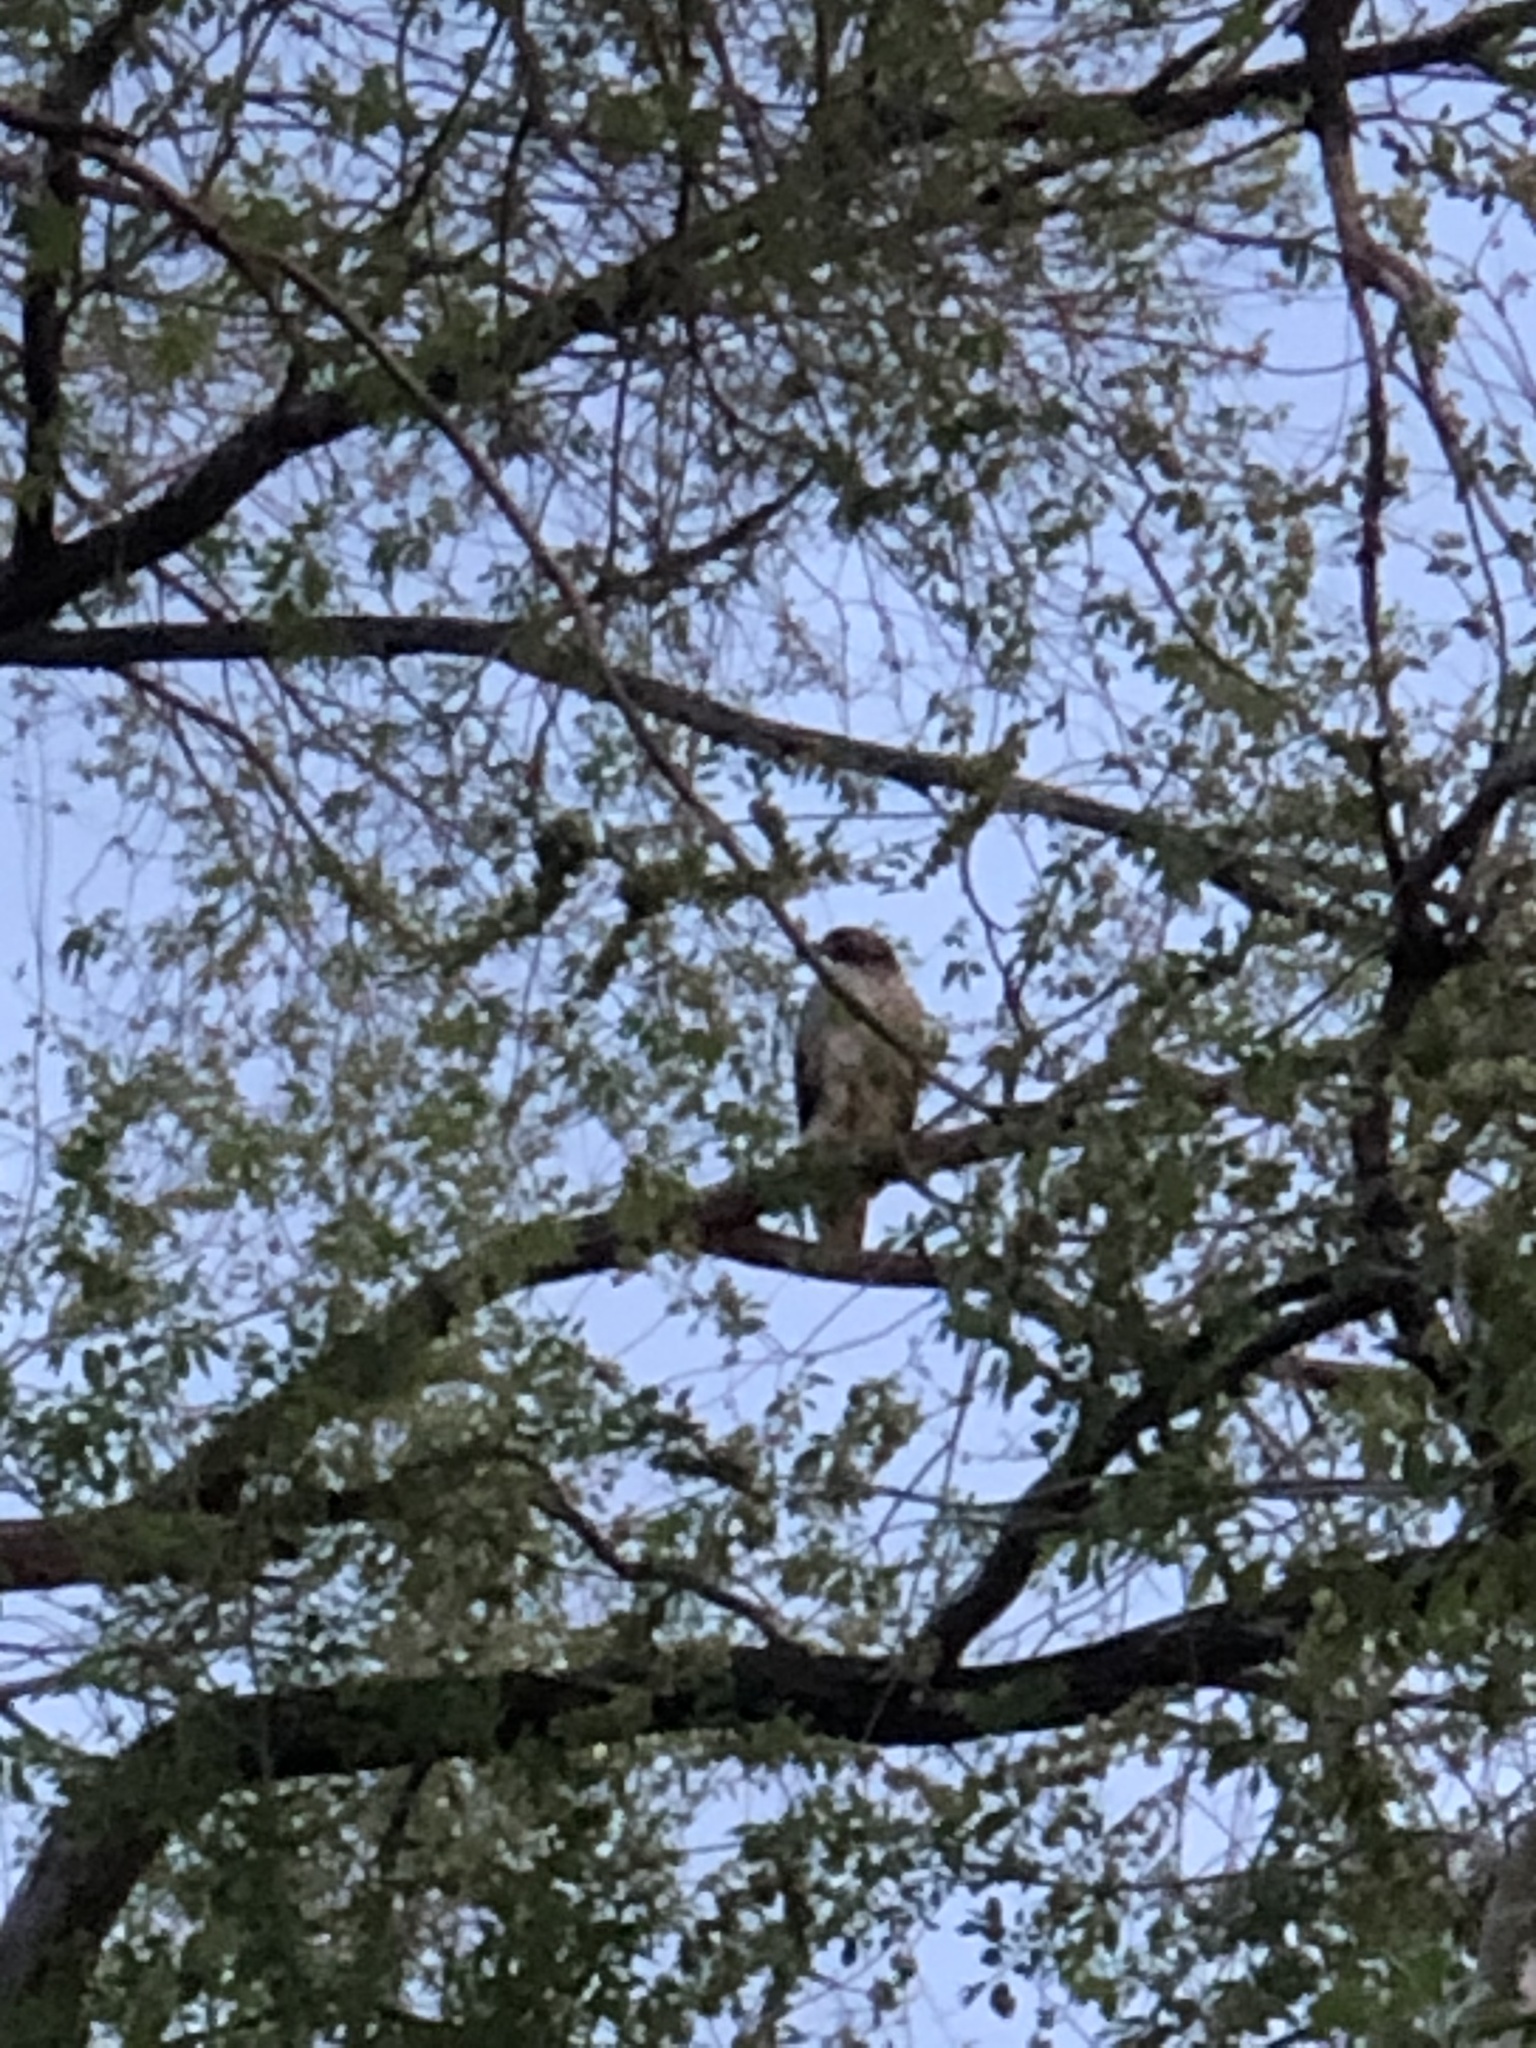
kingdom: Animalia
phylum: Chordata
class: Aves
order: Accipitriformes
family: Accipitridae
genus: Buteo
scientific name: Buteo jamaicensis
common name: Red-tailed hawk
